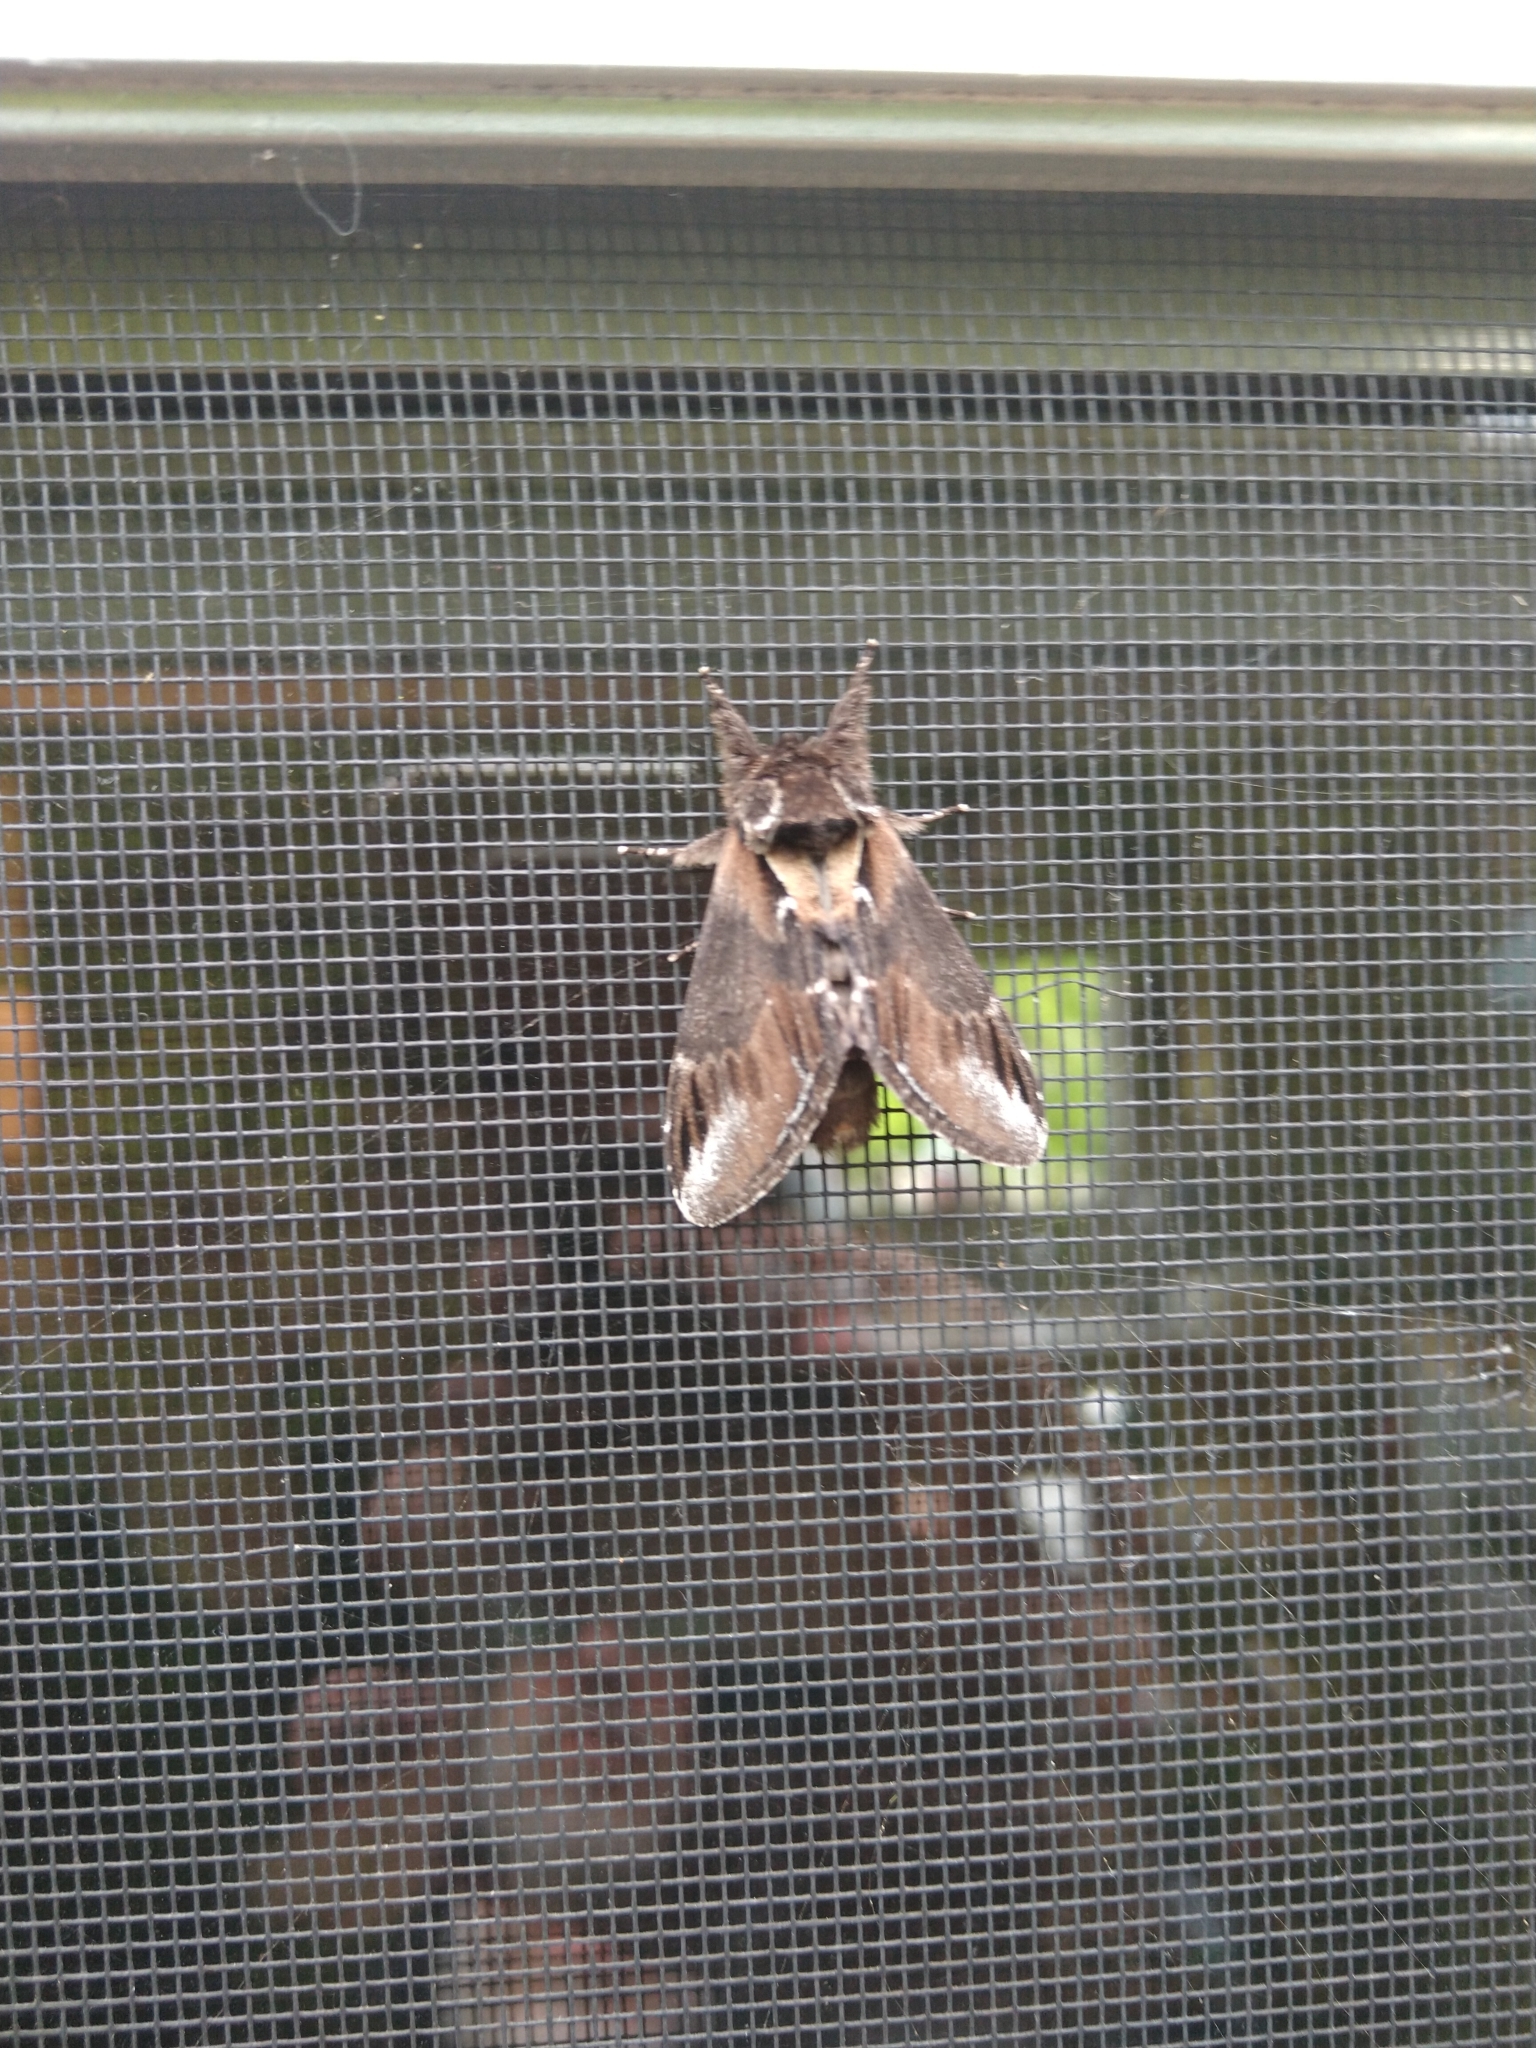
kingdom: Animalia
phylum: Arthropoda
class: Insecta
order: Lepidoptera
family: Notodontidae
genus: Pheosia
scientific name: Pheosia rimosa
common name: Black-rimmed prominent
